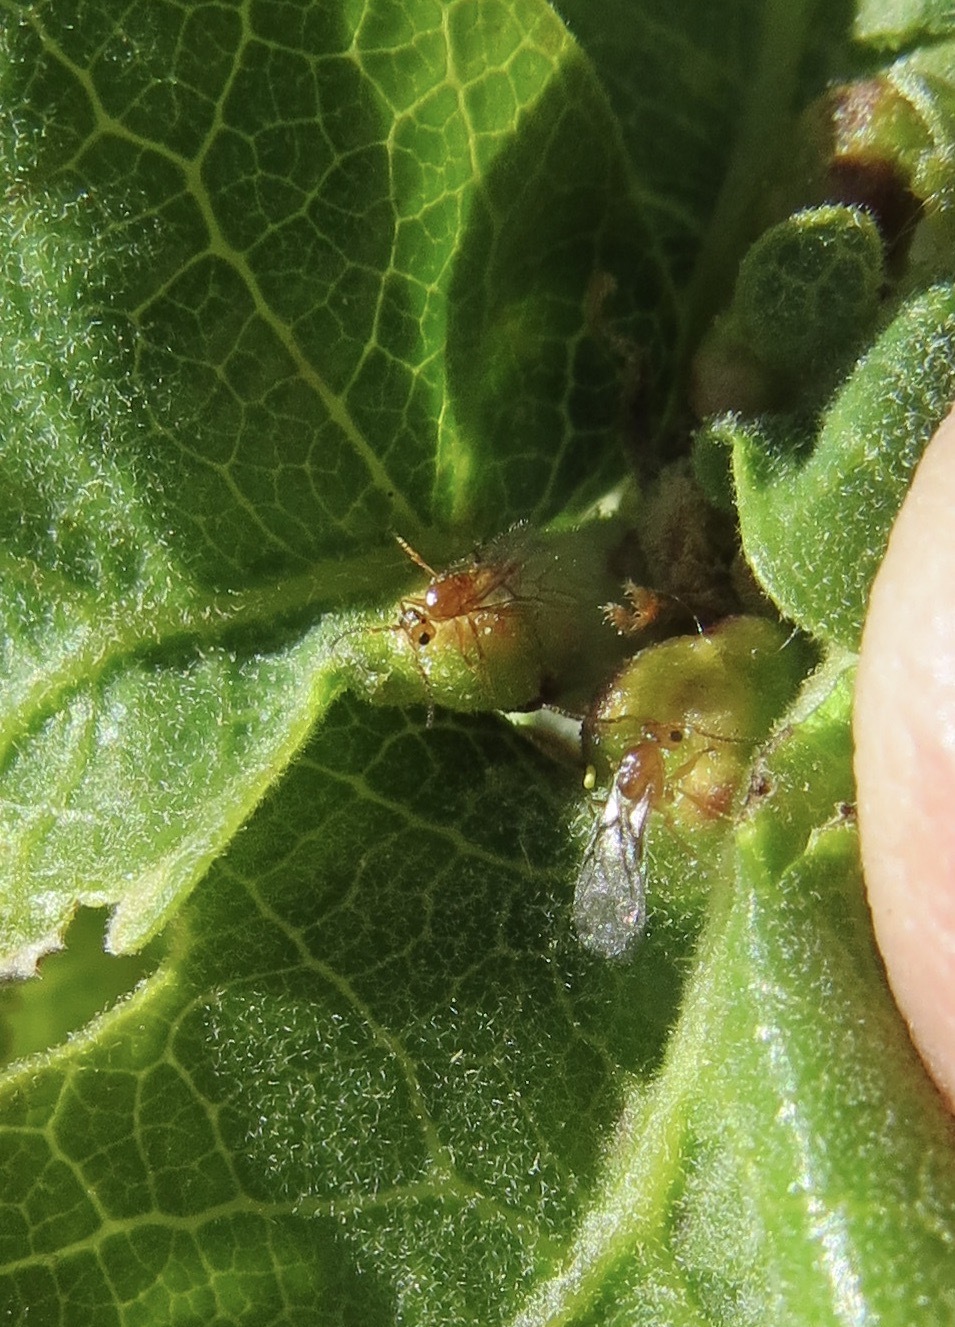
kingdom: Animalia
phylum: Arthropoda
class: Insecta
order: Hymenoptera
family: Cynipidae
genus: Neuroterus
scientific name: Neuroterus saltarius
